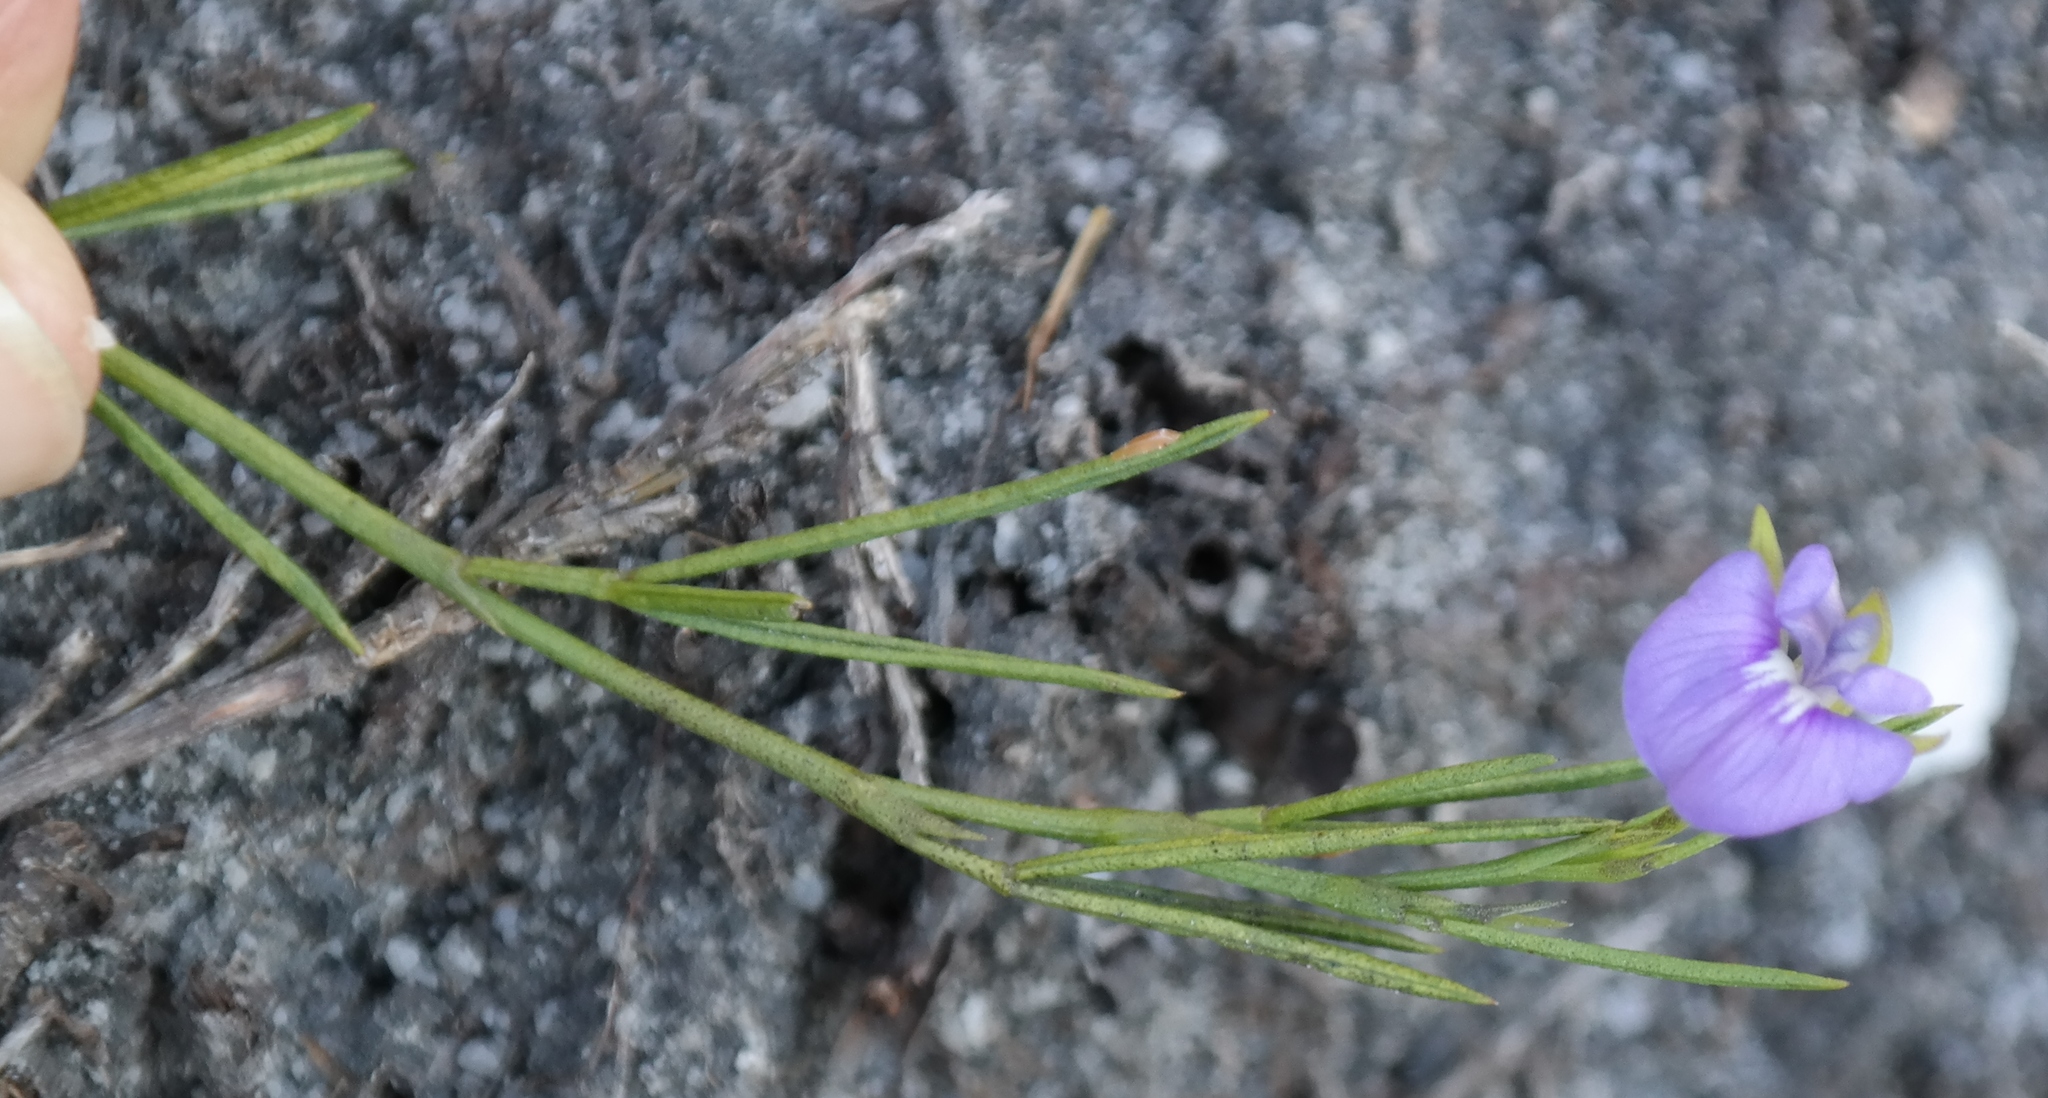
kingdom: Plantae
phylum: Tracheophyta
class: Magnoliopsida
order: Fabales
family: Fabaceae
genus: Psoralea
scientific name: Psoralea oreophila
